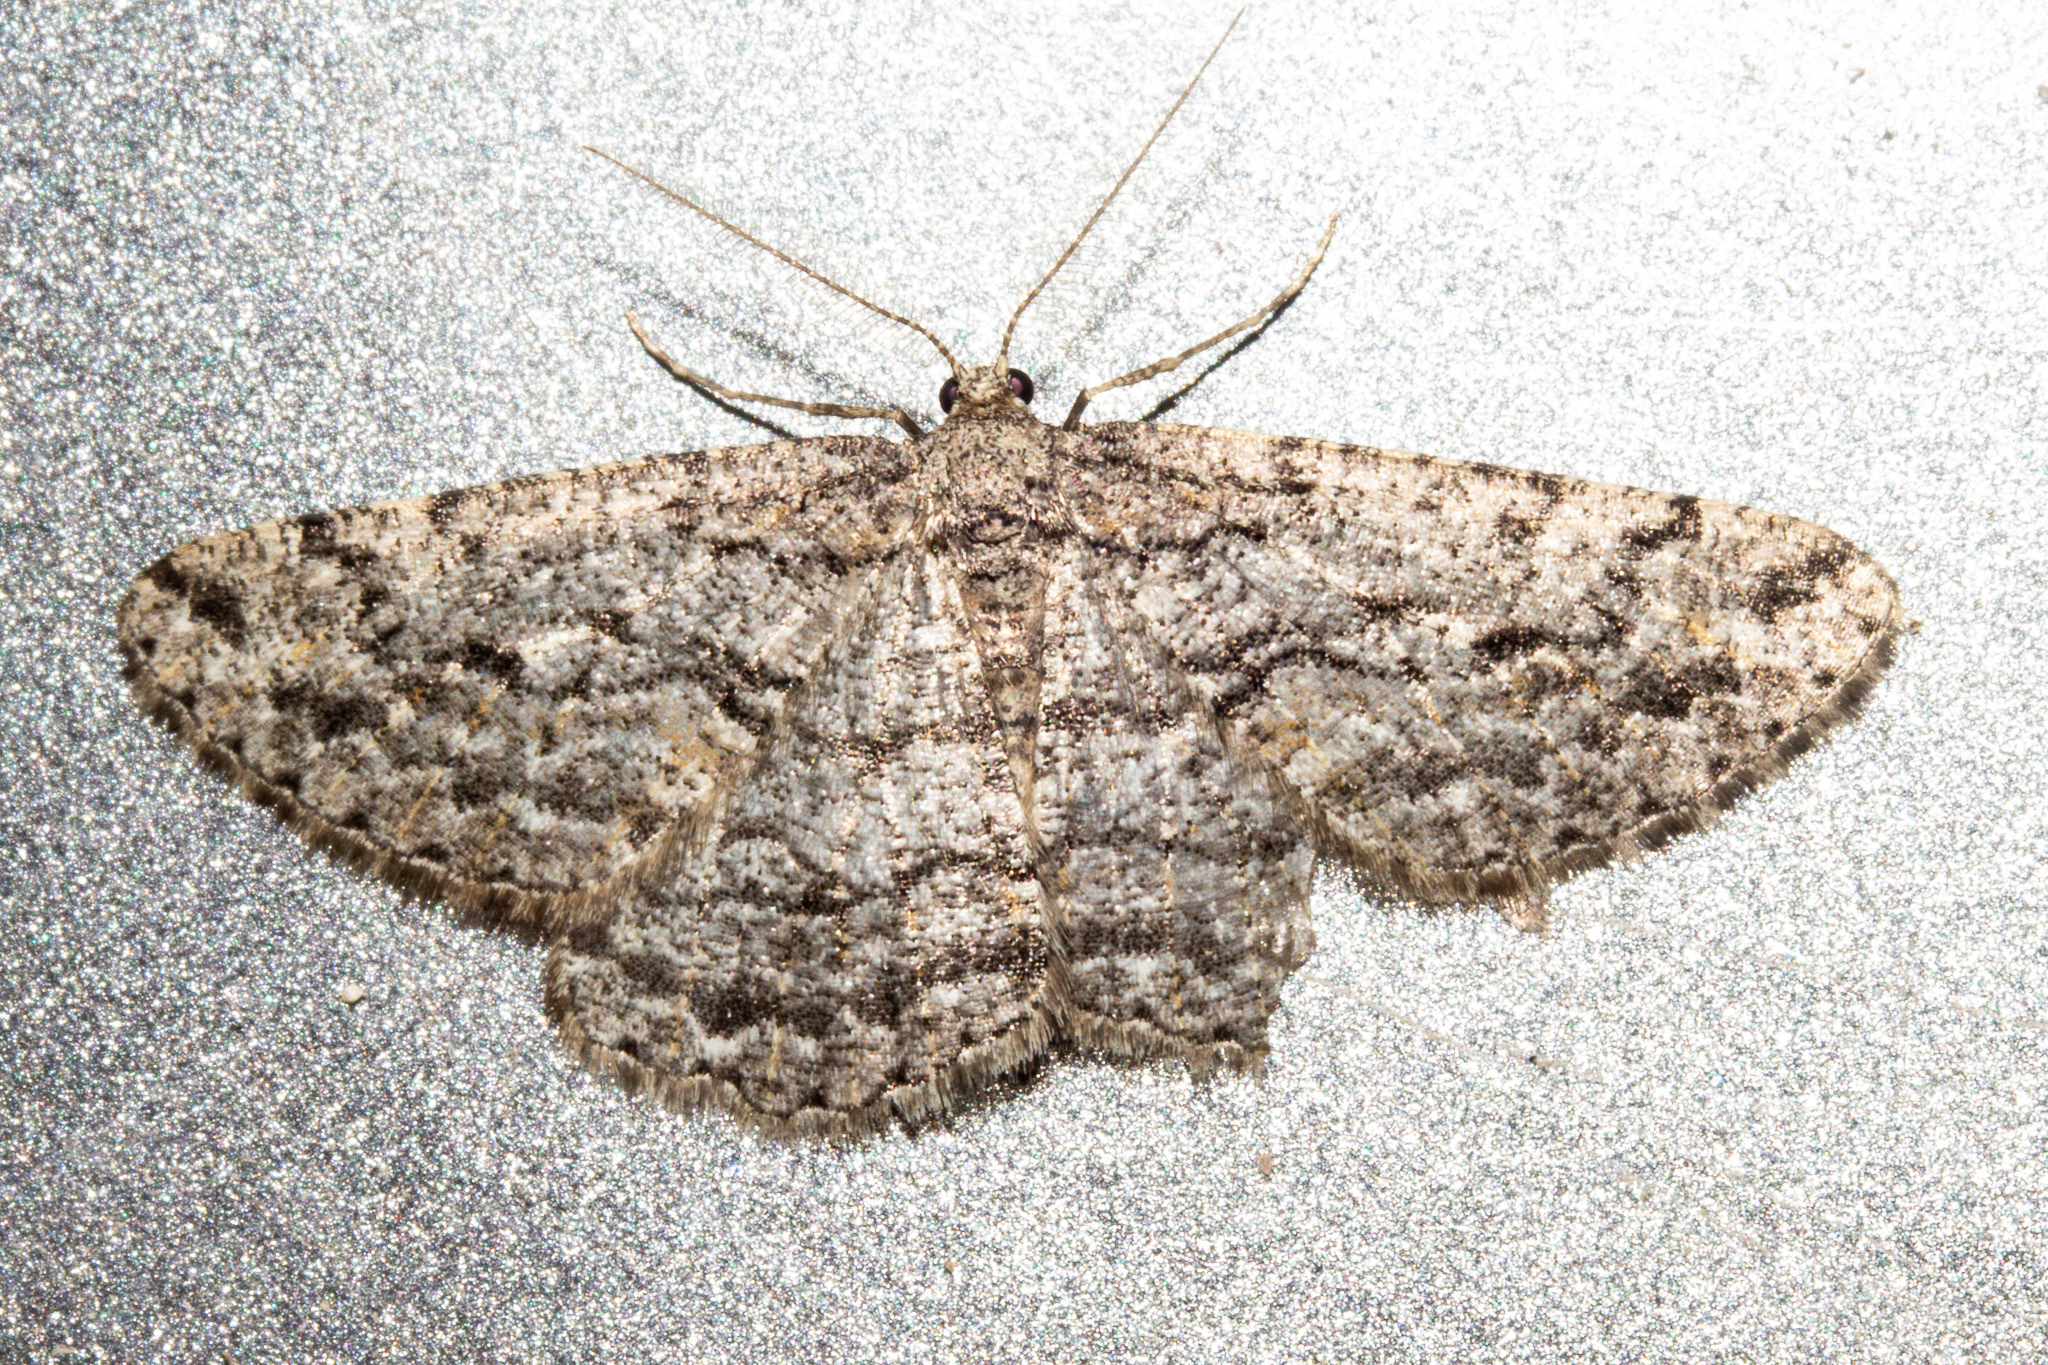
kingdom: Animalia
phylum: Arthropoda
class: Insecta
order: Lepidoptera
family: Geometridae
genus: Zermizinga
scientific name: Zermizinga indocilisaria
